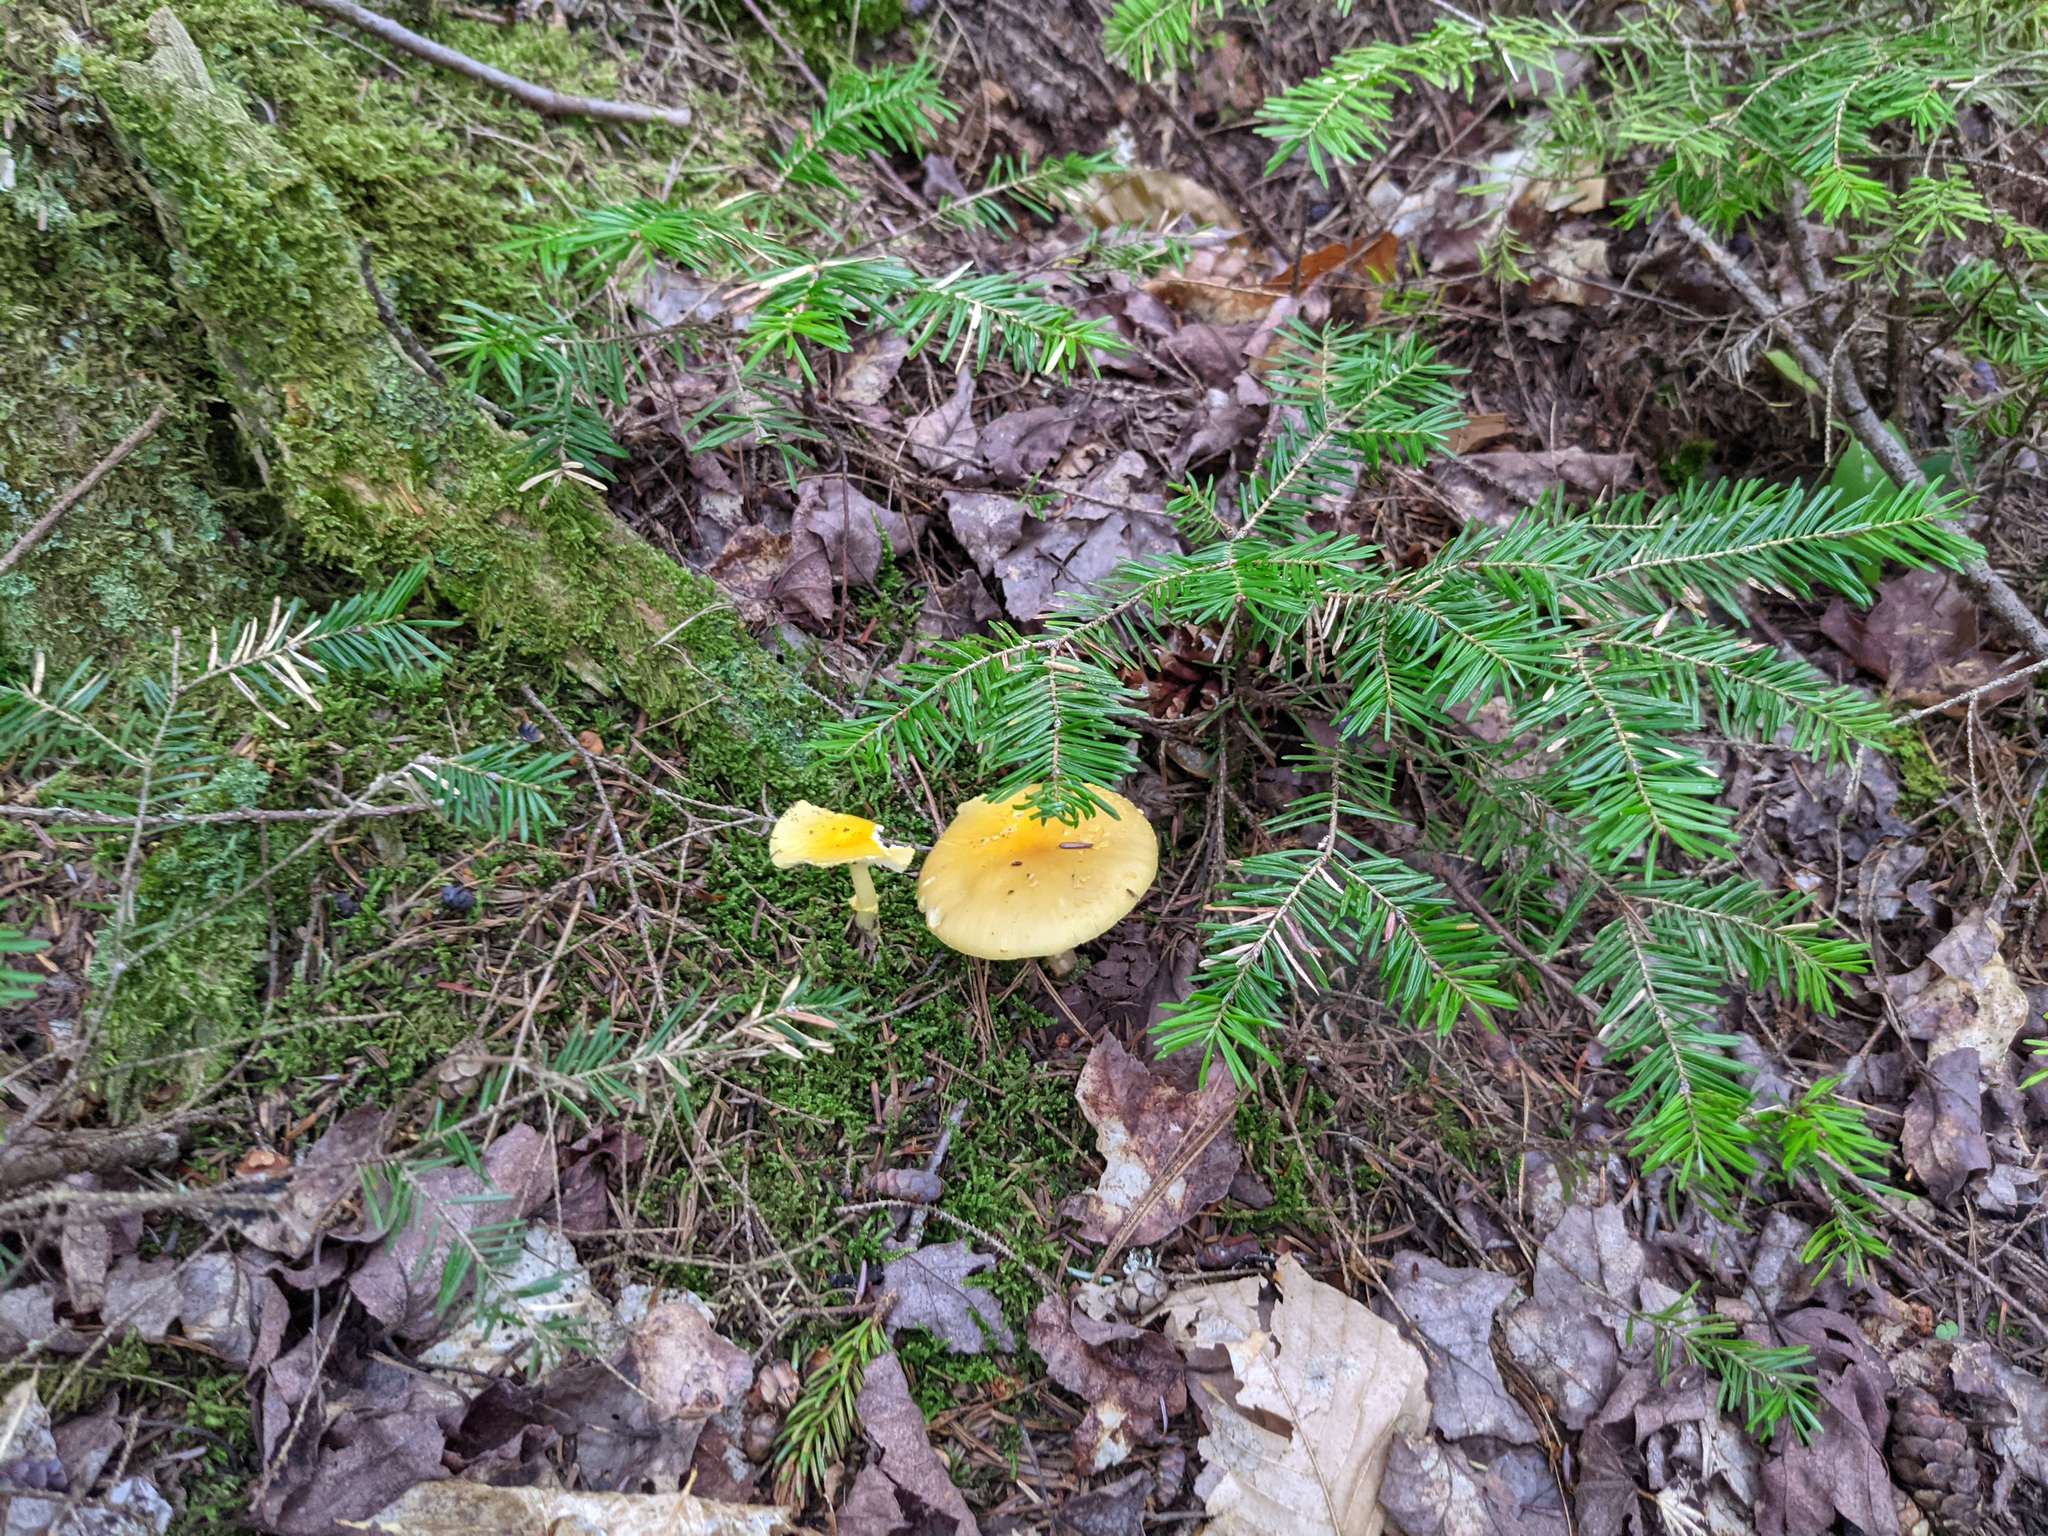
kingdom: Plantae
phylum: Tracheophyta
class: Pinopsida
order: Pinales
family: Pinaceae
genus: Abies
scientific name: Abies balsamea
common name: Balsam fir
